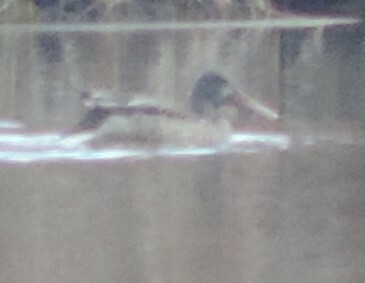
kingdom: Animalia
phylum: Chordata
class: Aves
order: Anseriformes
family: Anatidae
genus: Spatula
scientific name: Spatula clypeata
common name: Northern shoveler
